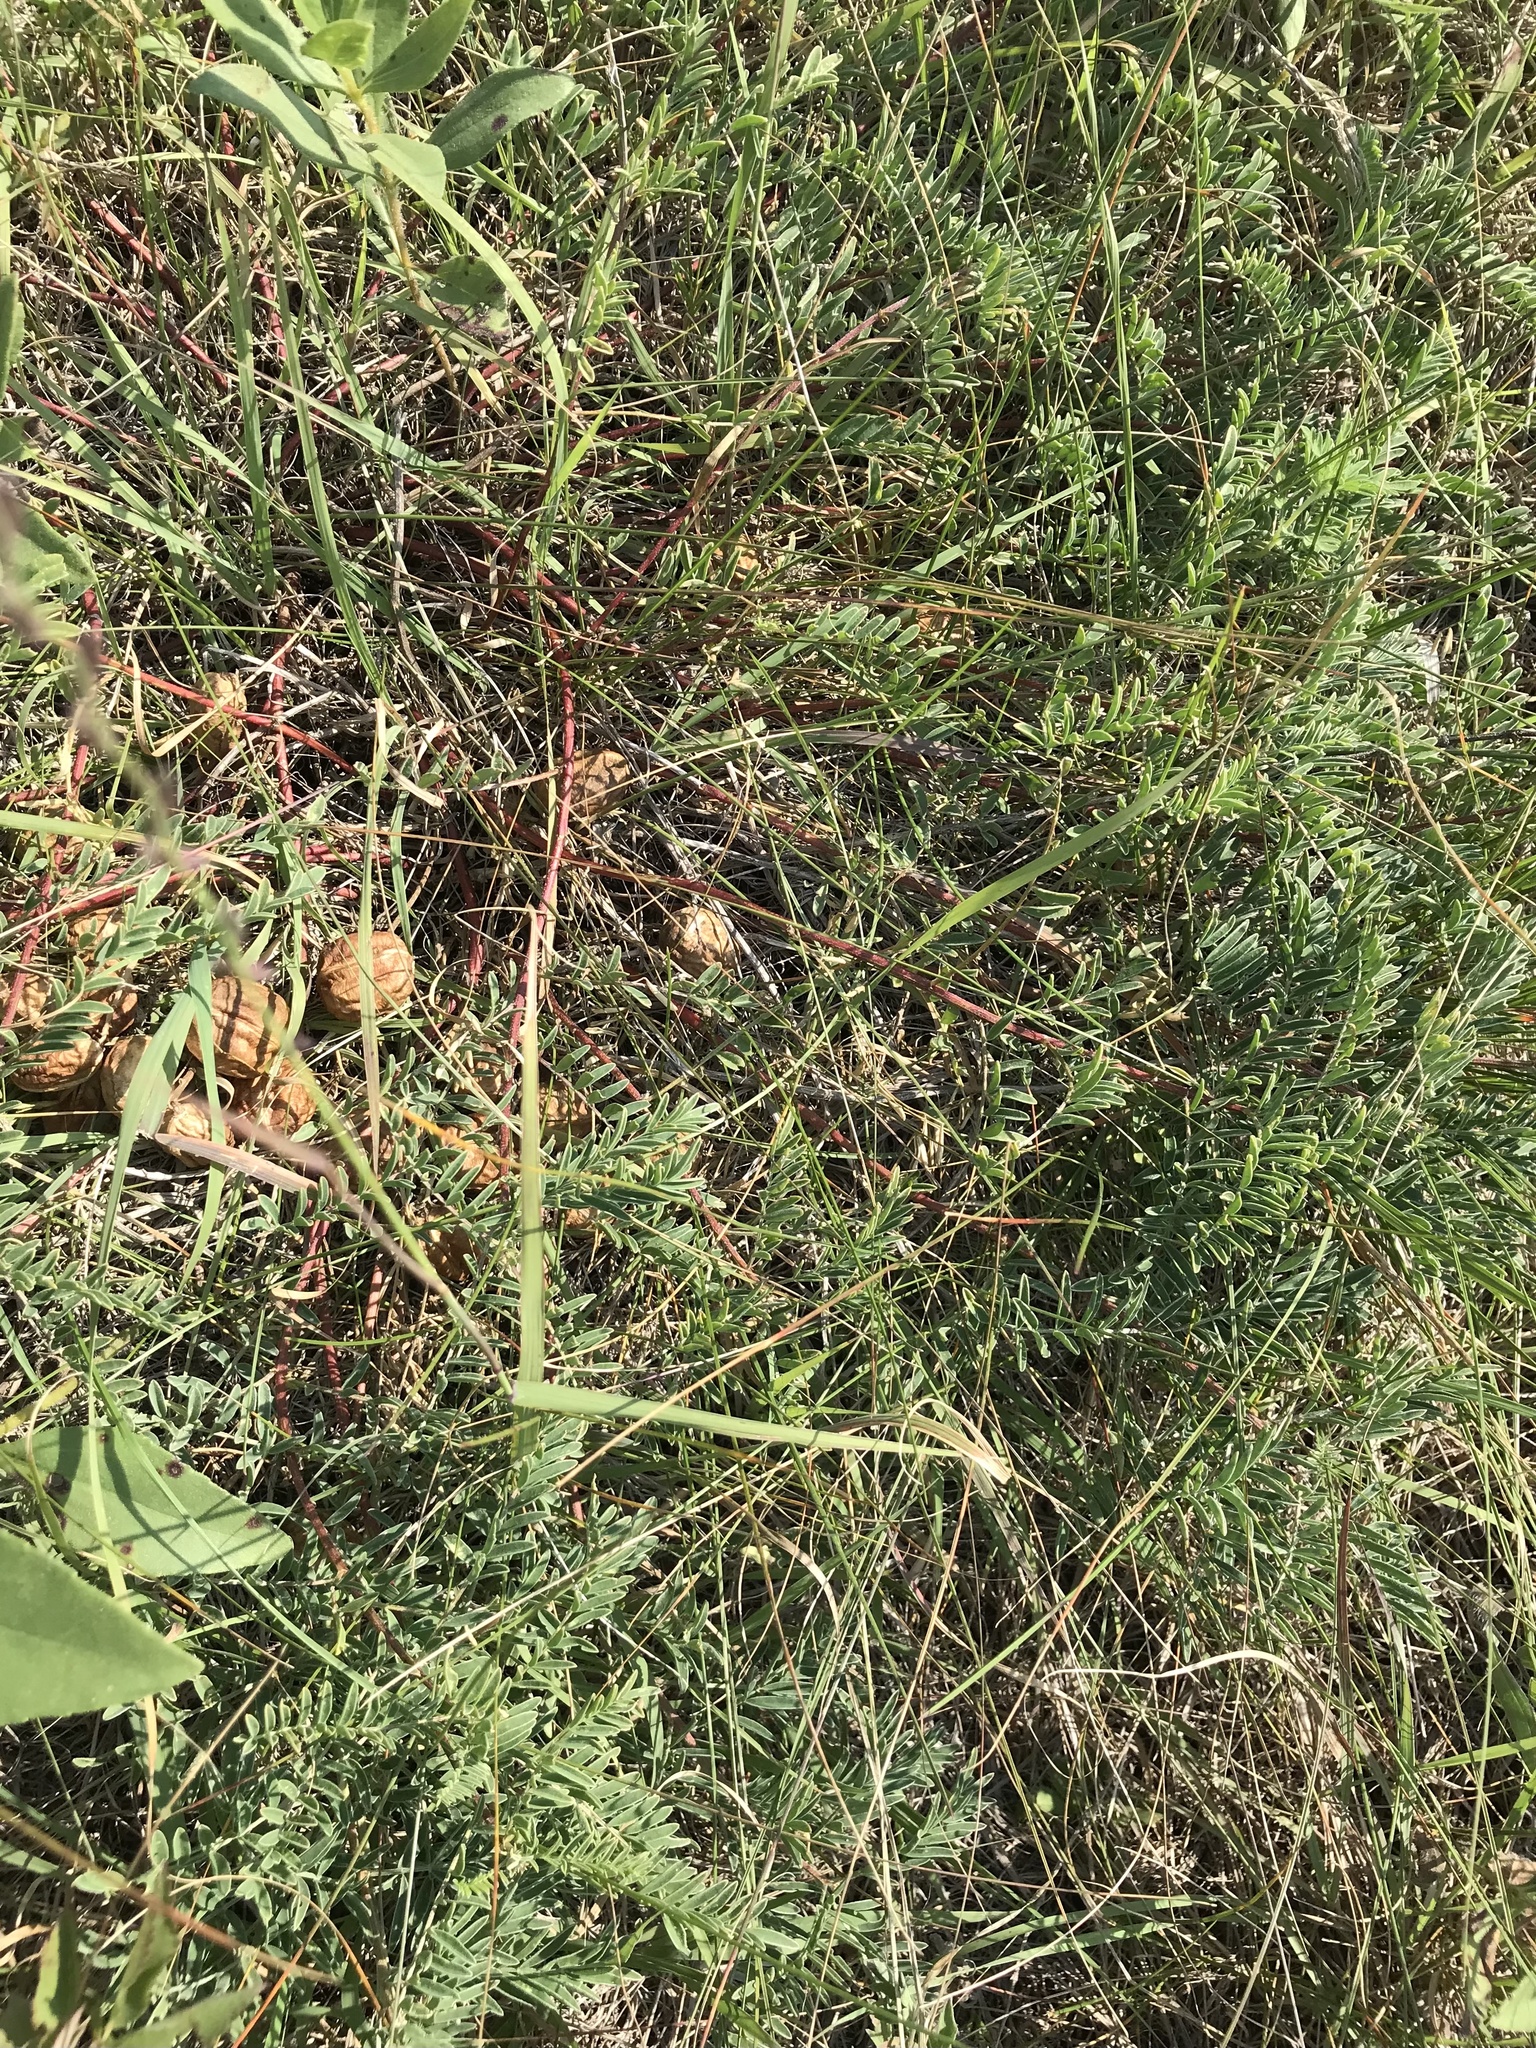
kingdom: Plantae
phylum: Tracheophyta
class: Magnoliopsida
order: Fabales
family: Fabaceae
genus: Astragalus
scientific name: Astragalus crassicarpus
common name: Ground-plum milk-vetch
